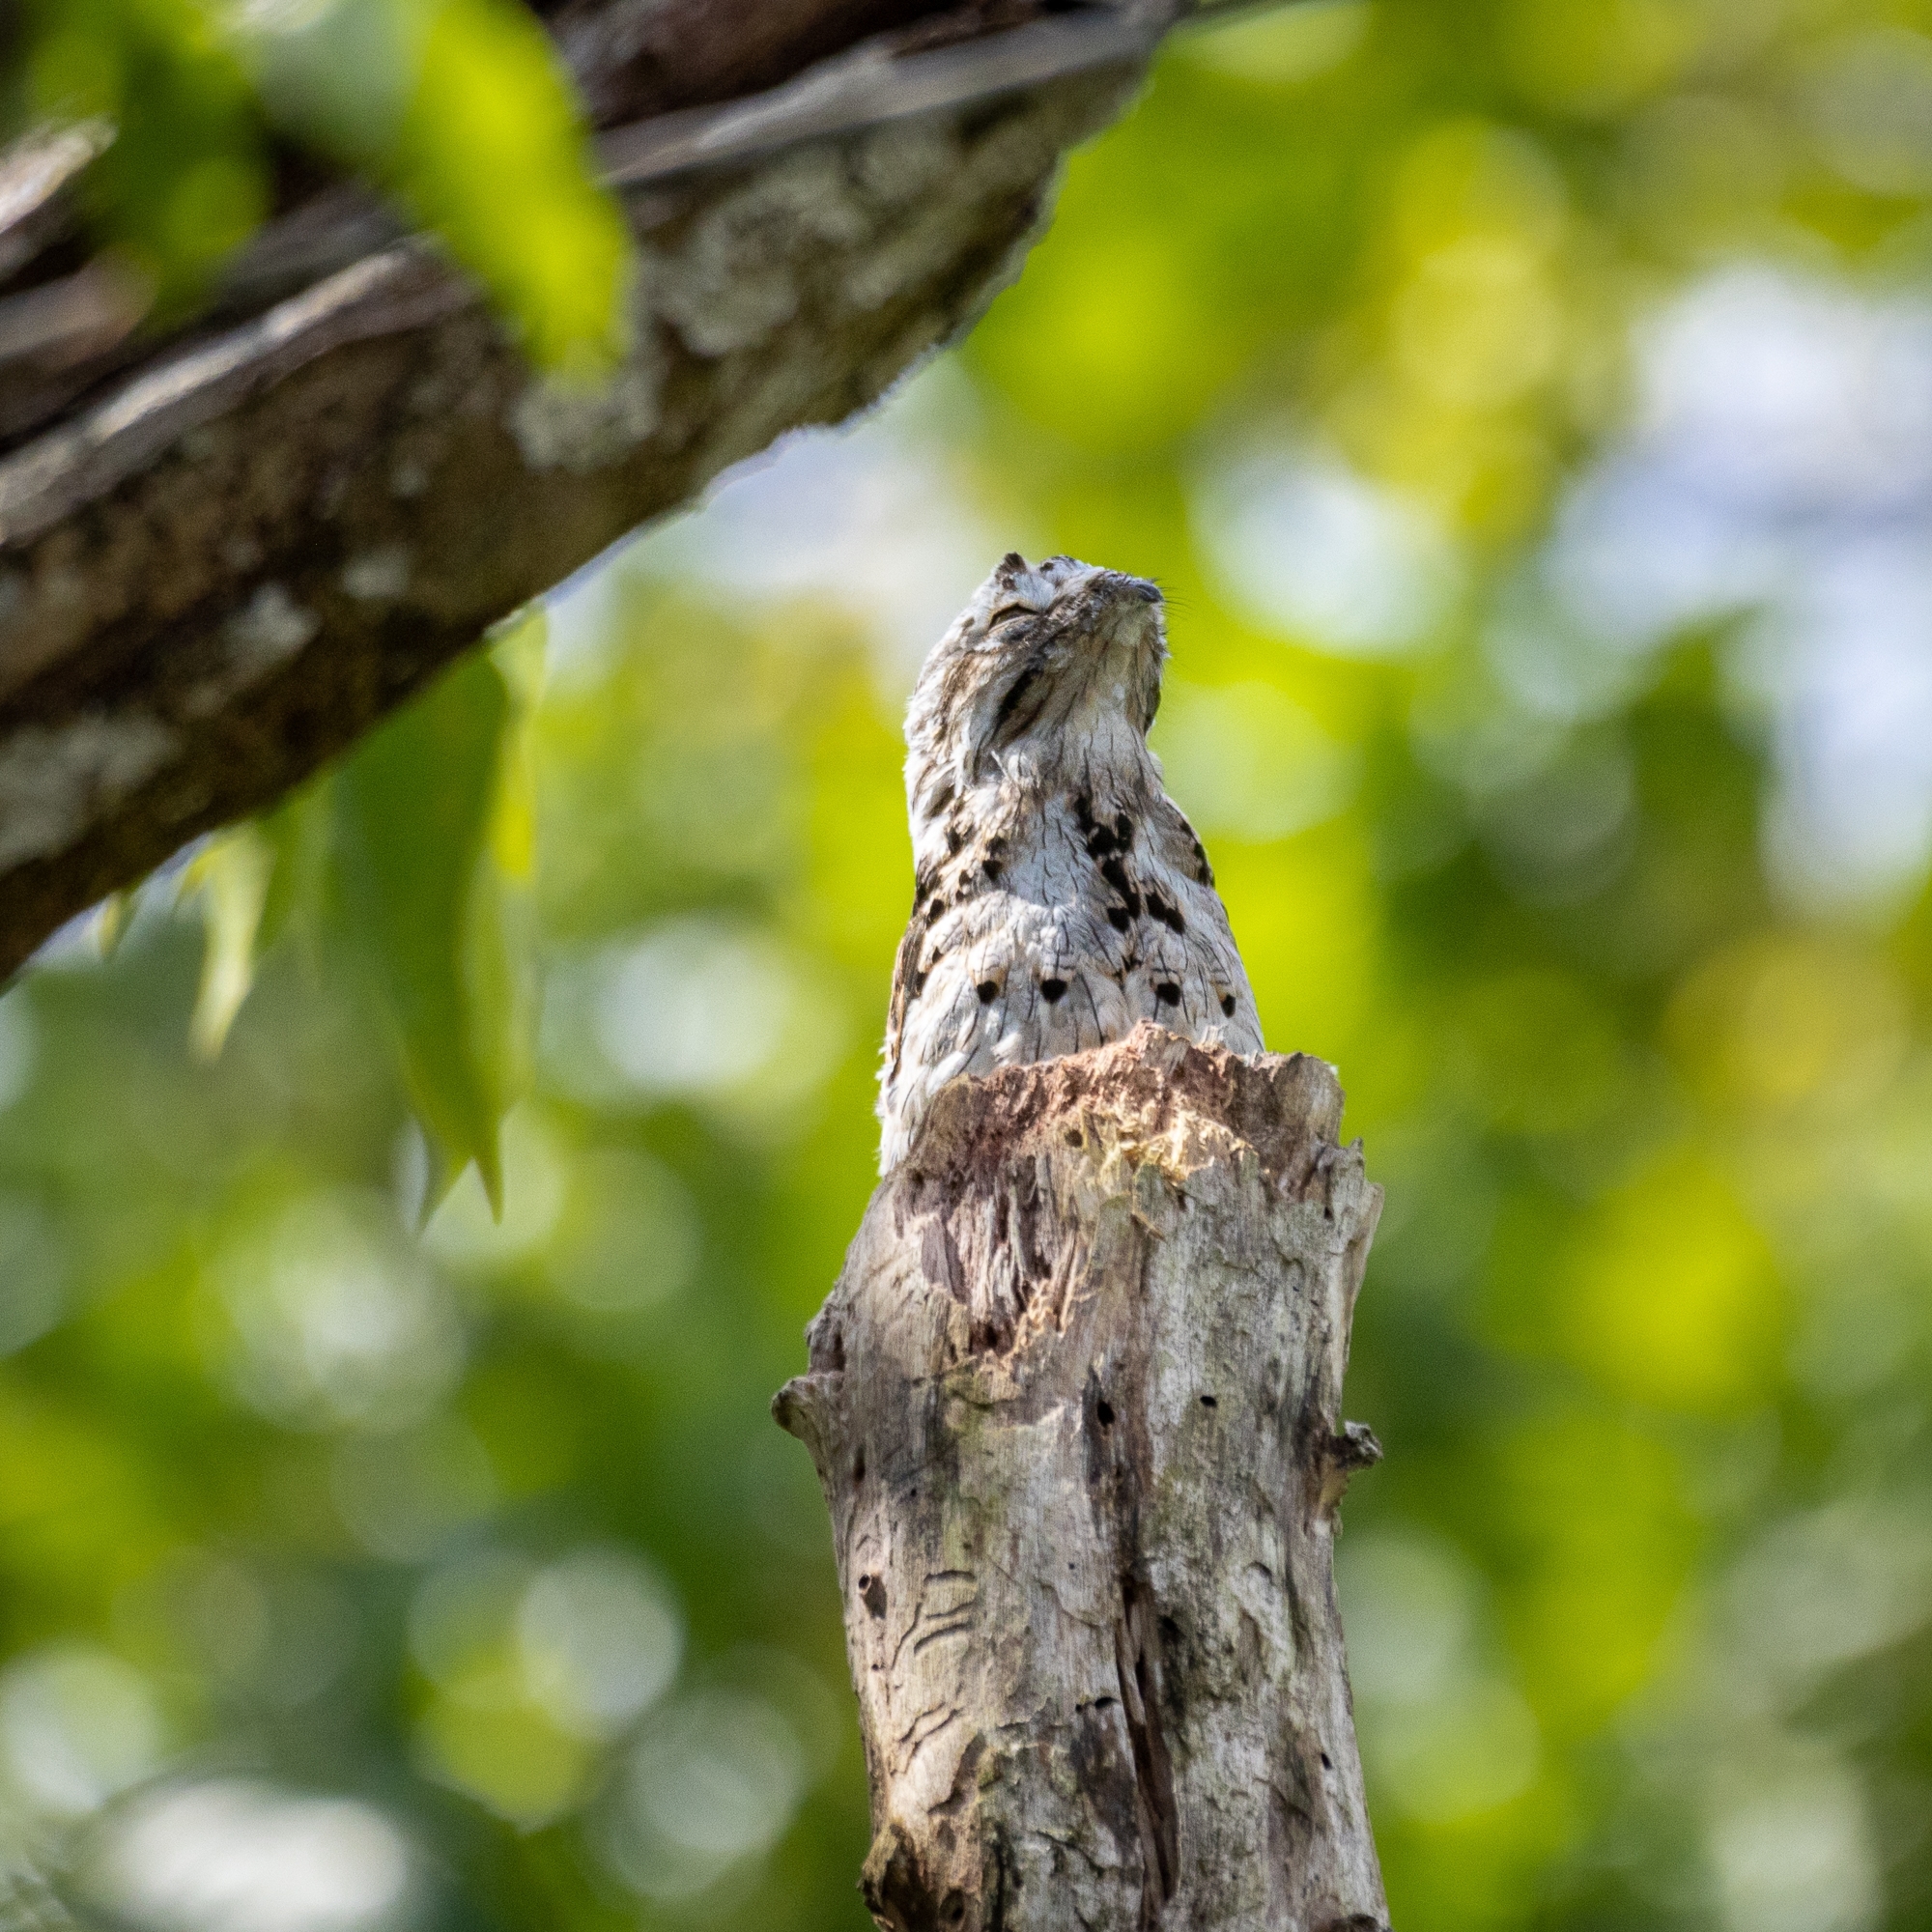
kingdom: Animalia
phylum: Chordata
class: Aves
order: Nyctibiiformes
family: Nyctibiidae
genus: Nyctibius
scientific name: Nyctibius griseus
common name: Common potoo
